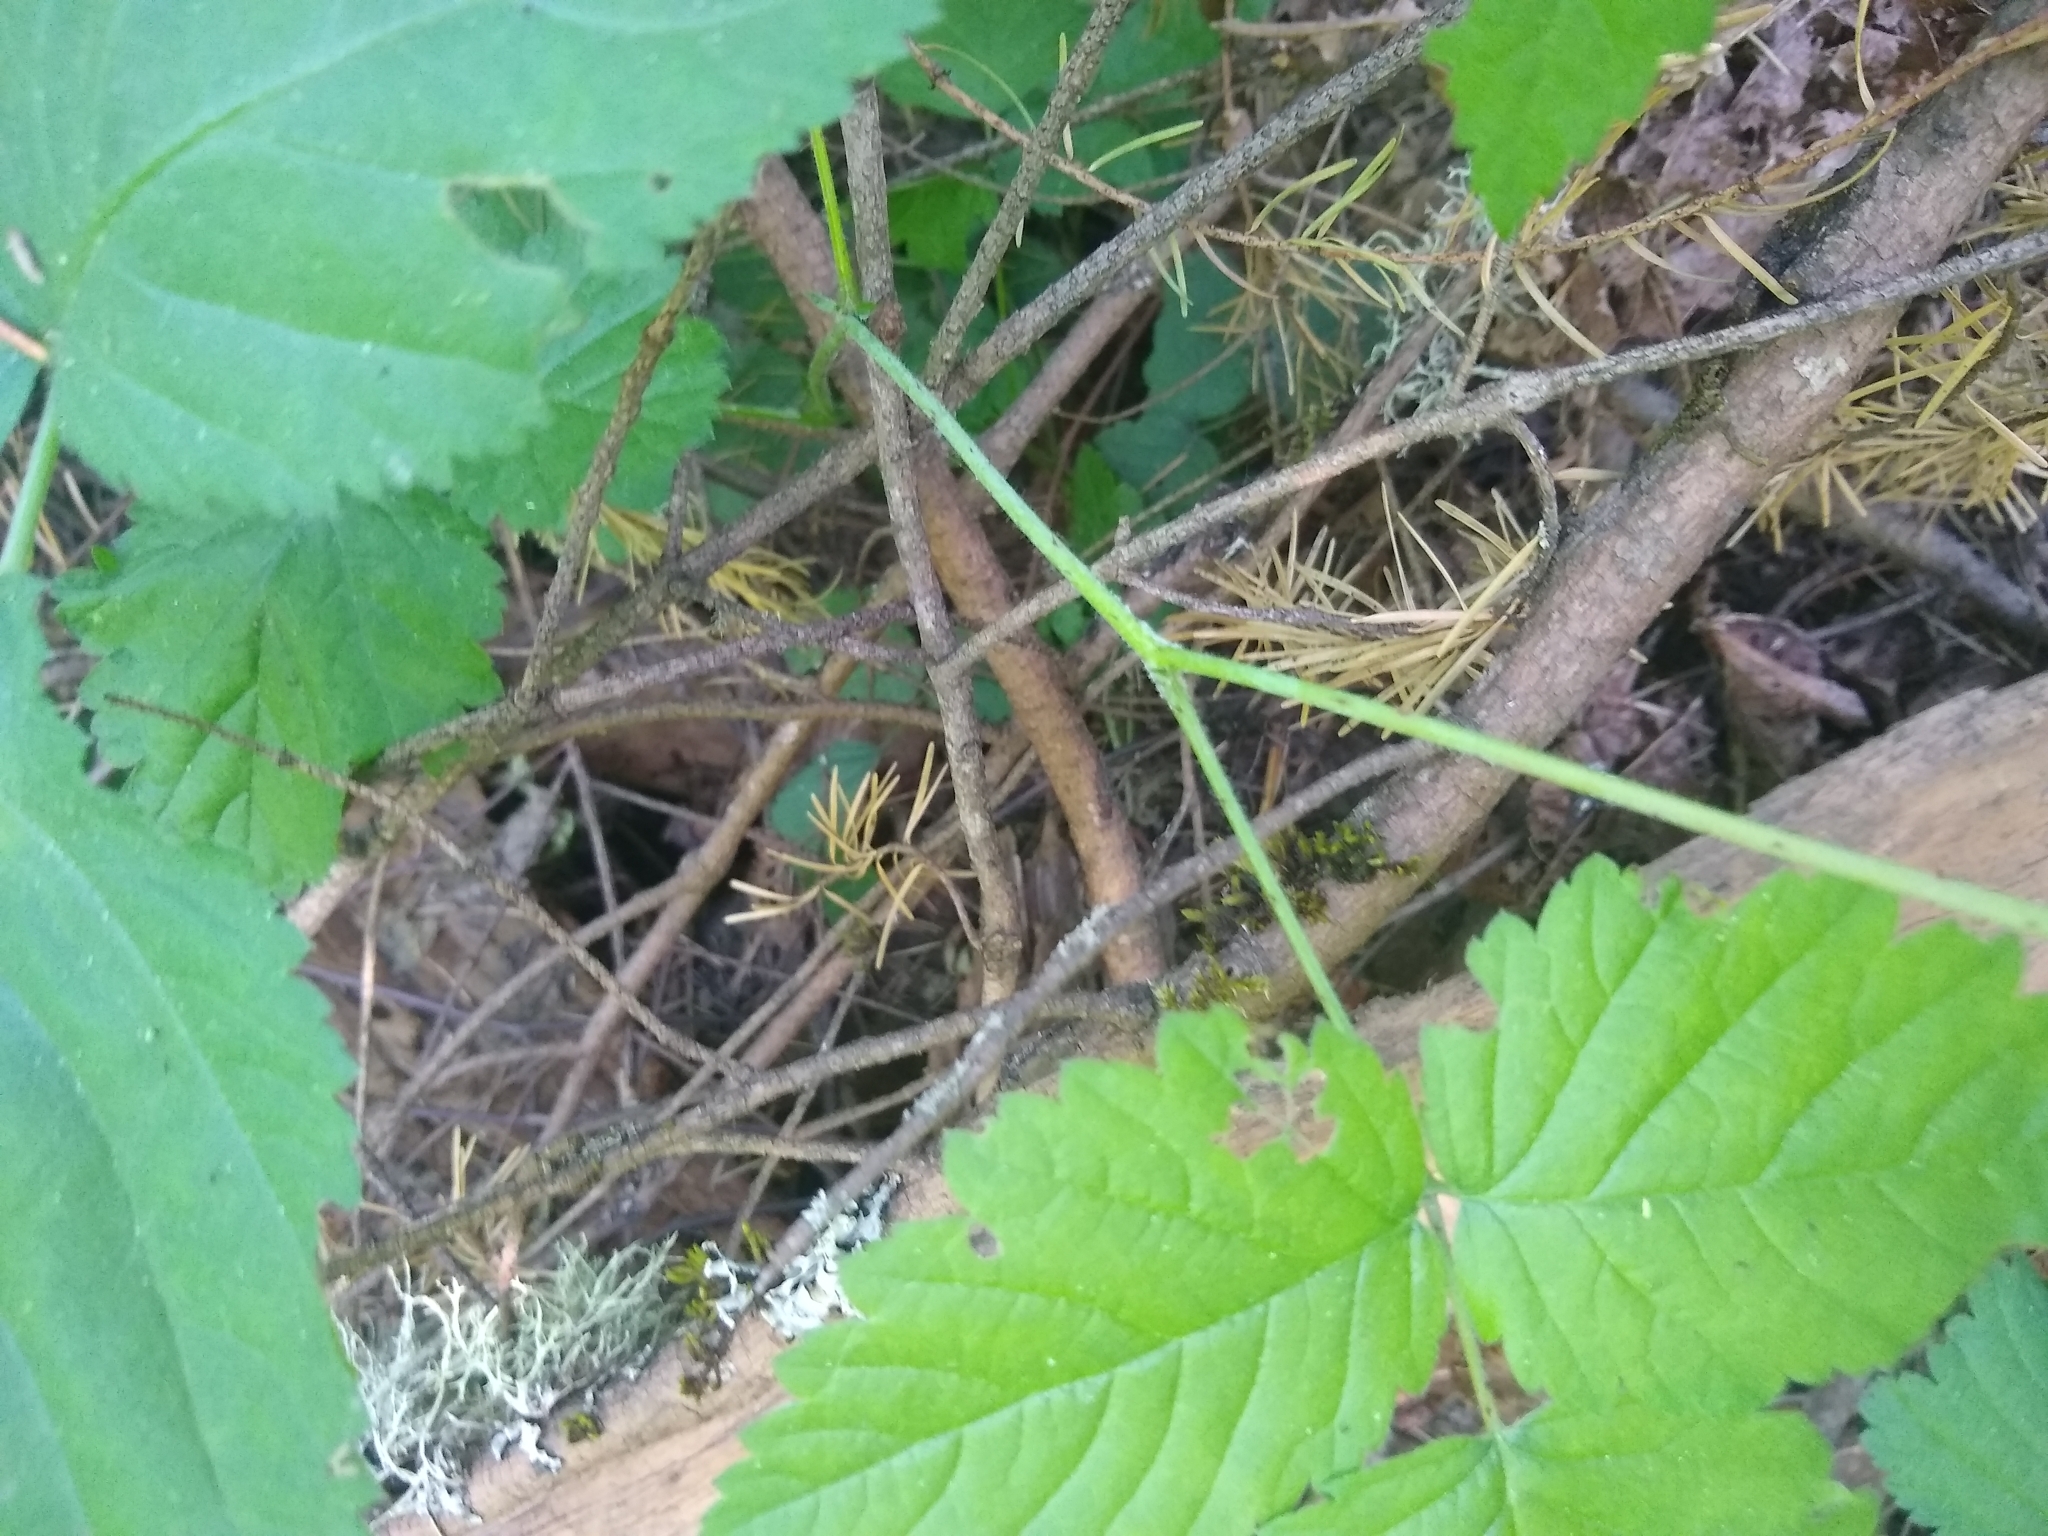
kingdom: Plantae
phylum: Tracheophyta
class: Magnoliopsida
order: Rosales
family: Rosaceae
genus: Rubus
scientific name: Rubus ursinus
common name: Pacific blackberry
